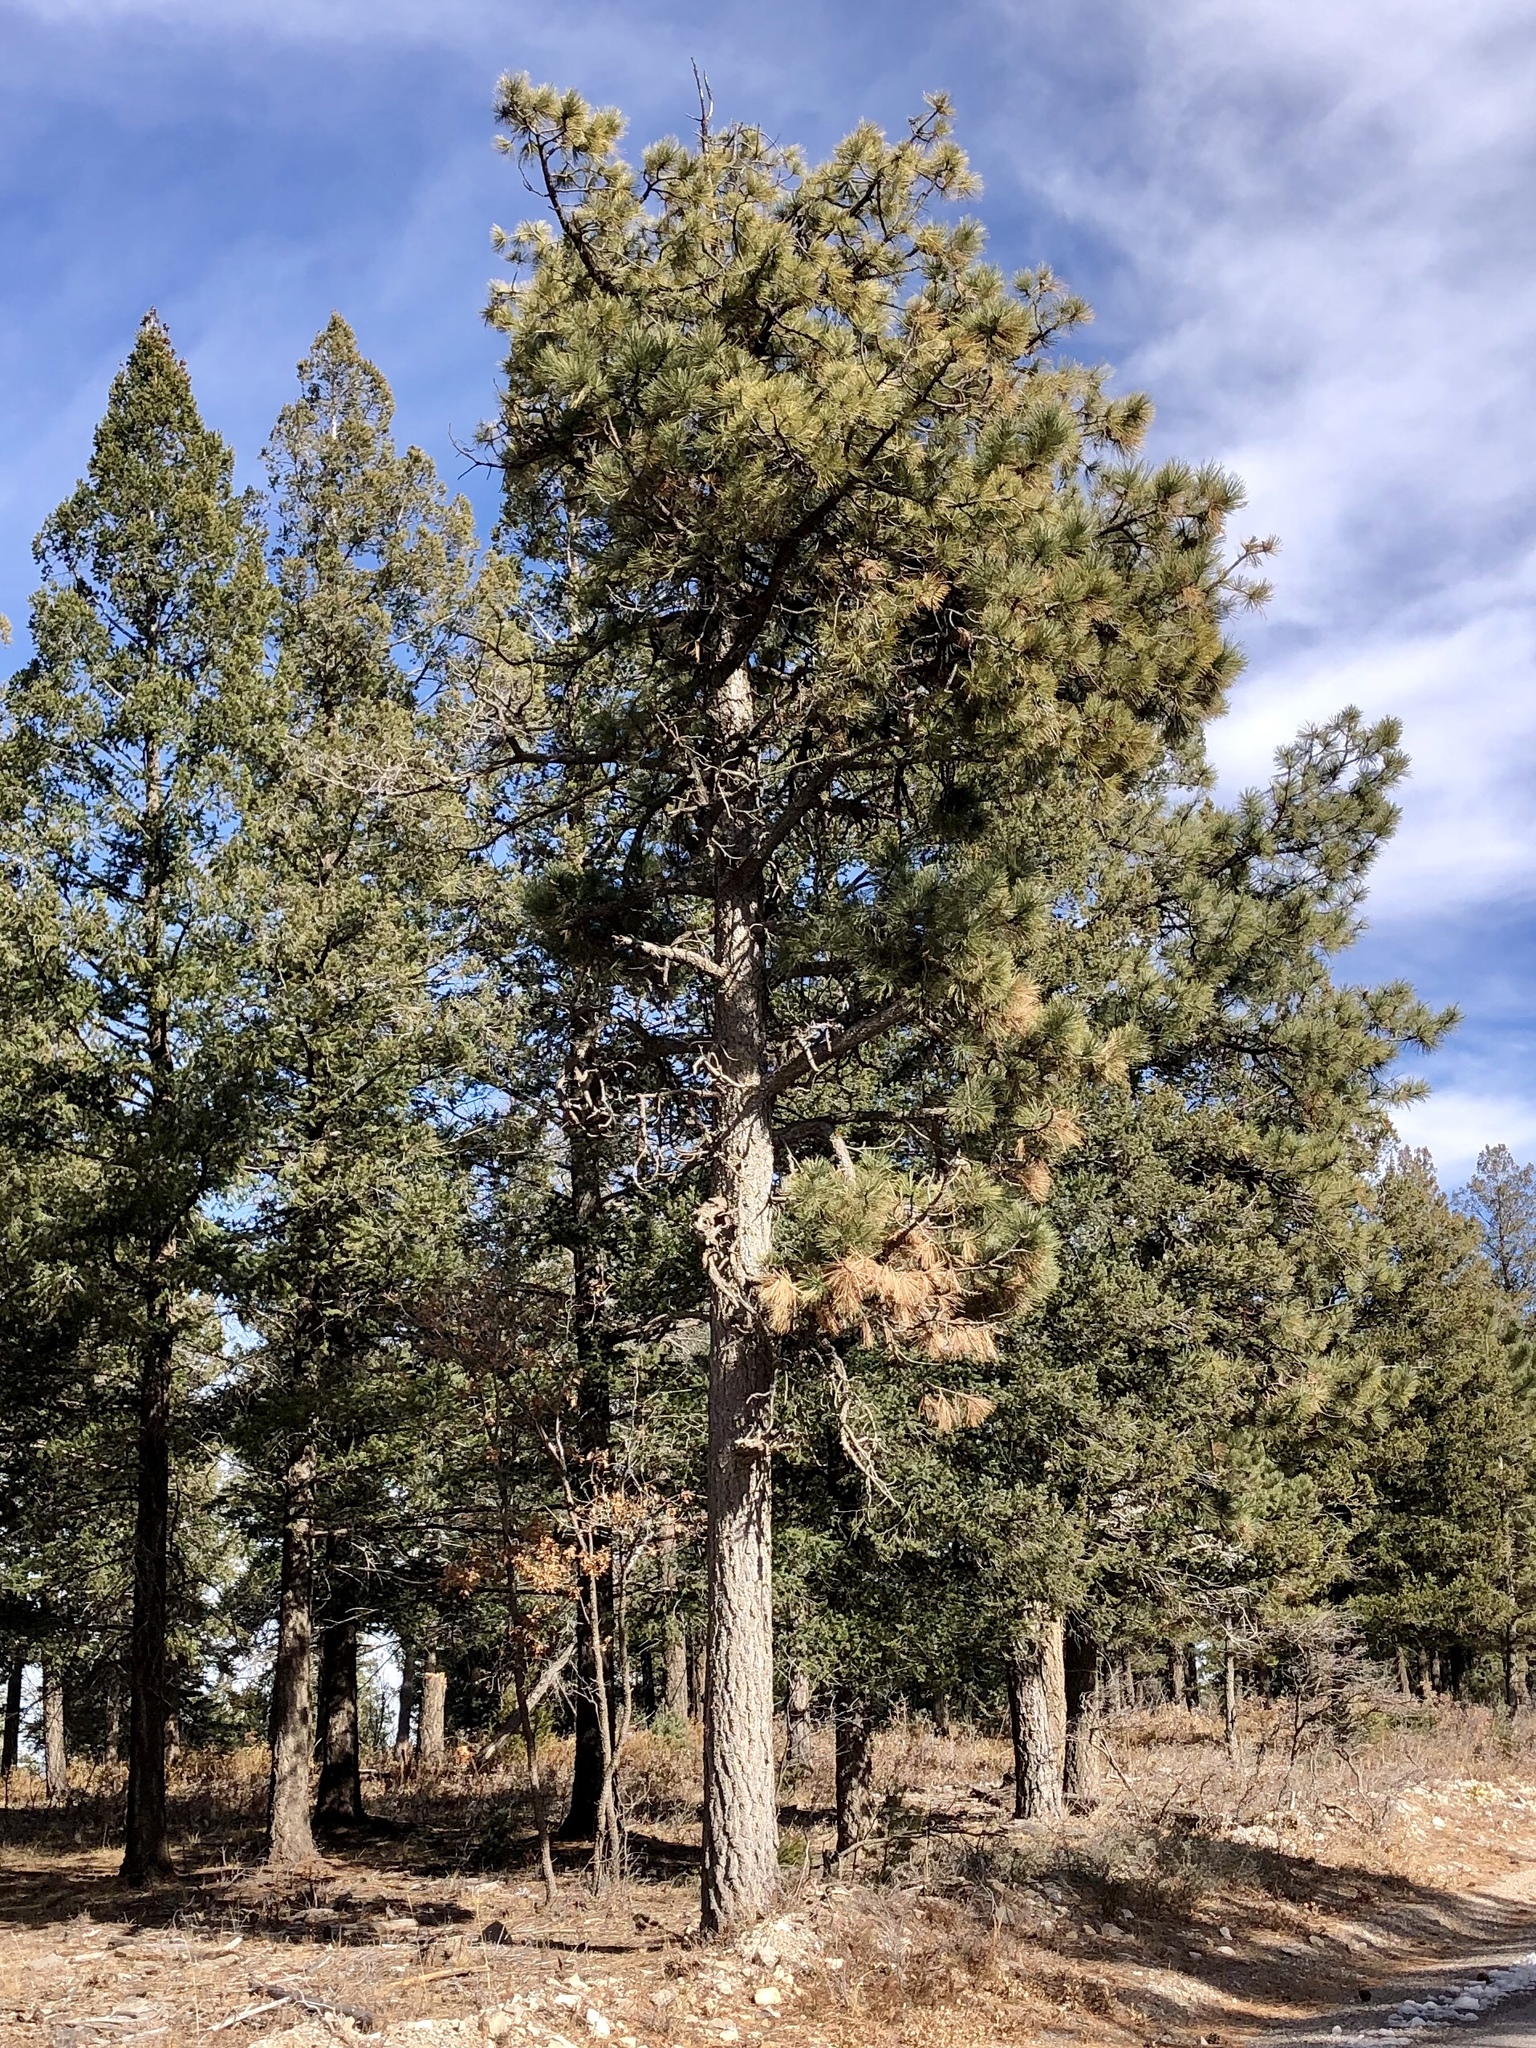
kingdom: Plantae
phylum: Tracheophyta
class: Pinopsida
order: Pinales
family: Pinaceae
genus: Pinus
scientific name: Pinus ponderosa
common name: Western yellow-pine
